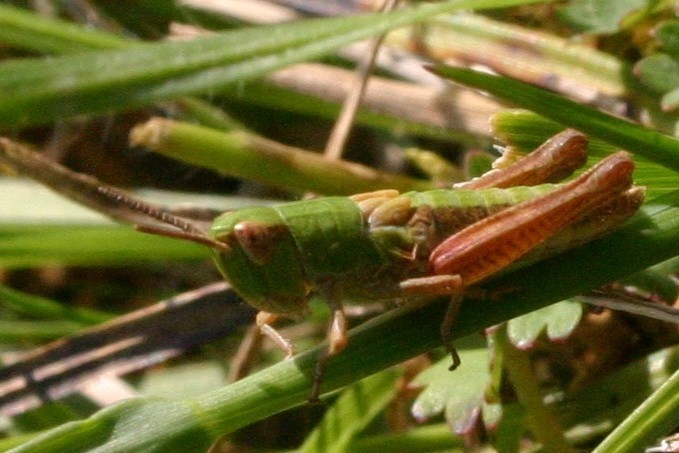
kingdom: Animalia
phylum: Arthropoda
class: Insecta
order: Orthoptera
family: Acrididae
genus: Pseudochorthippus
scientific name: Pseudochorthippus parallelus
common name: Meadow grasshopper
